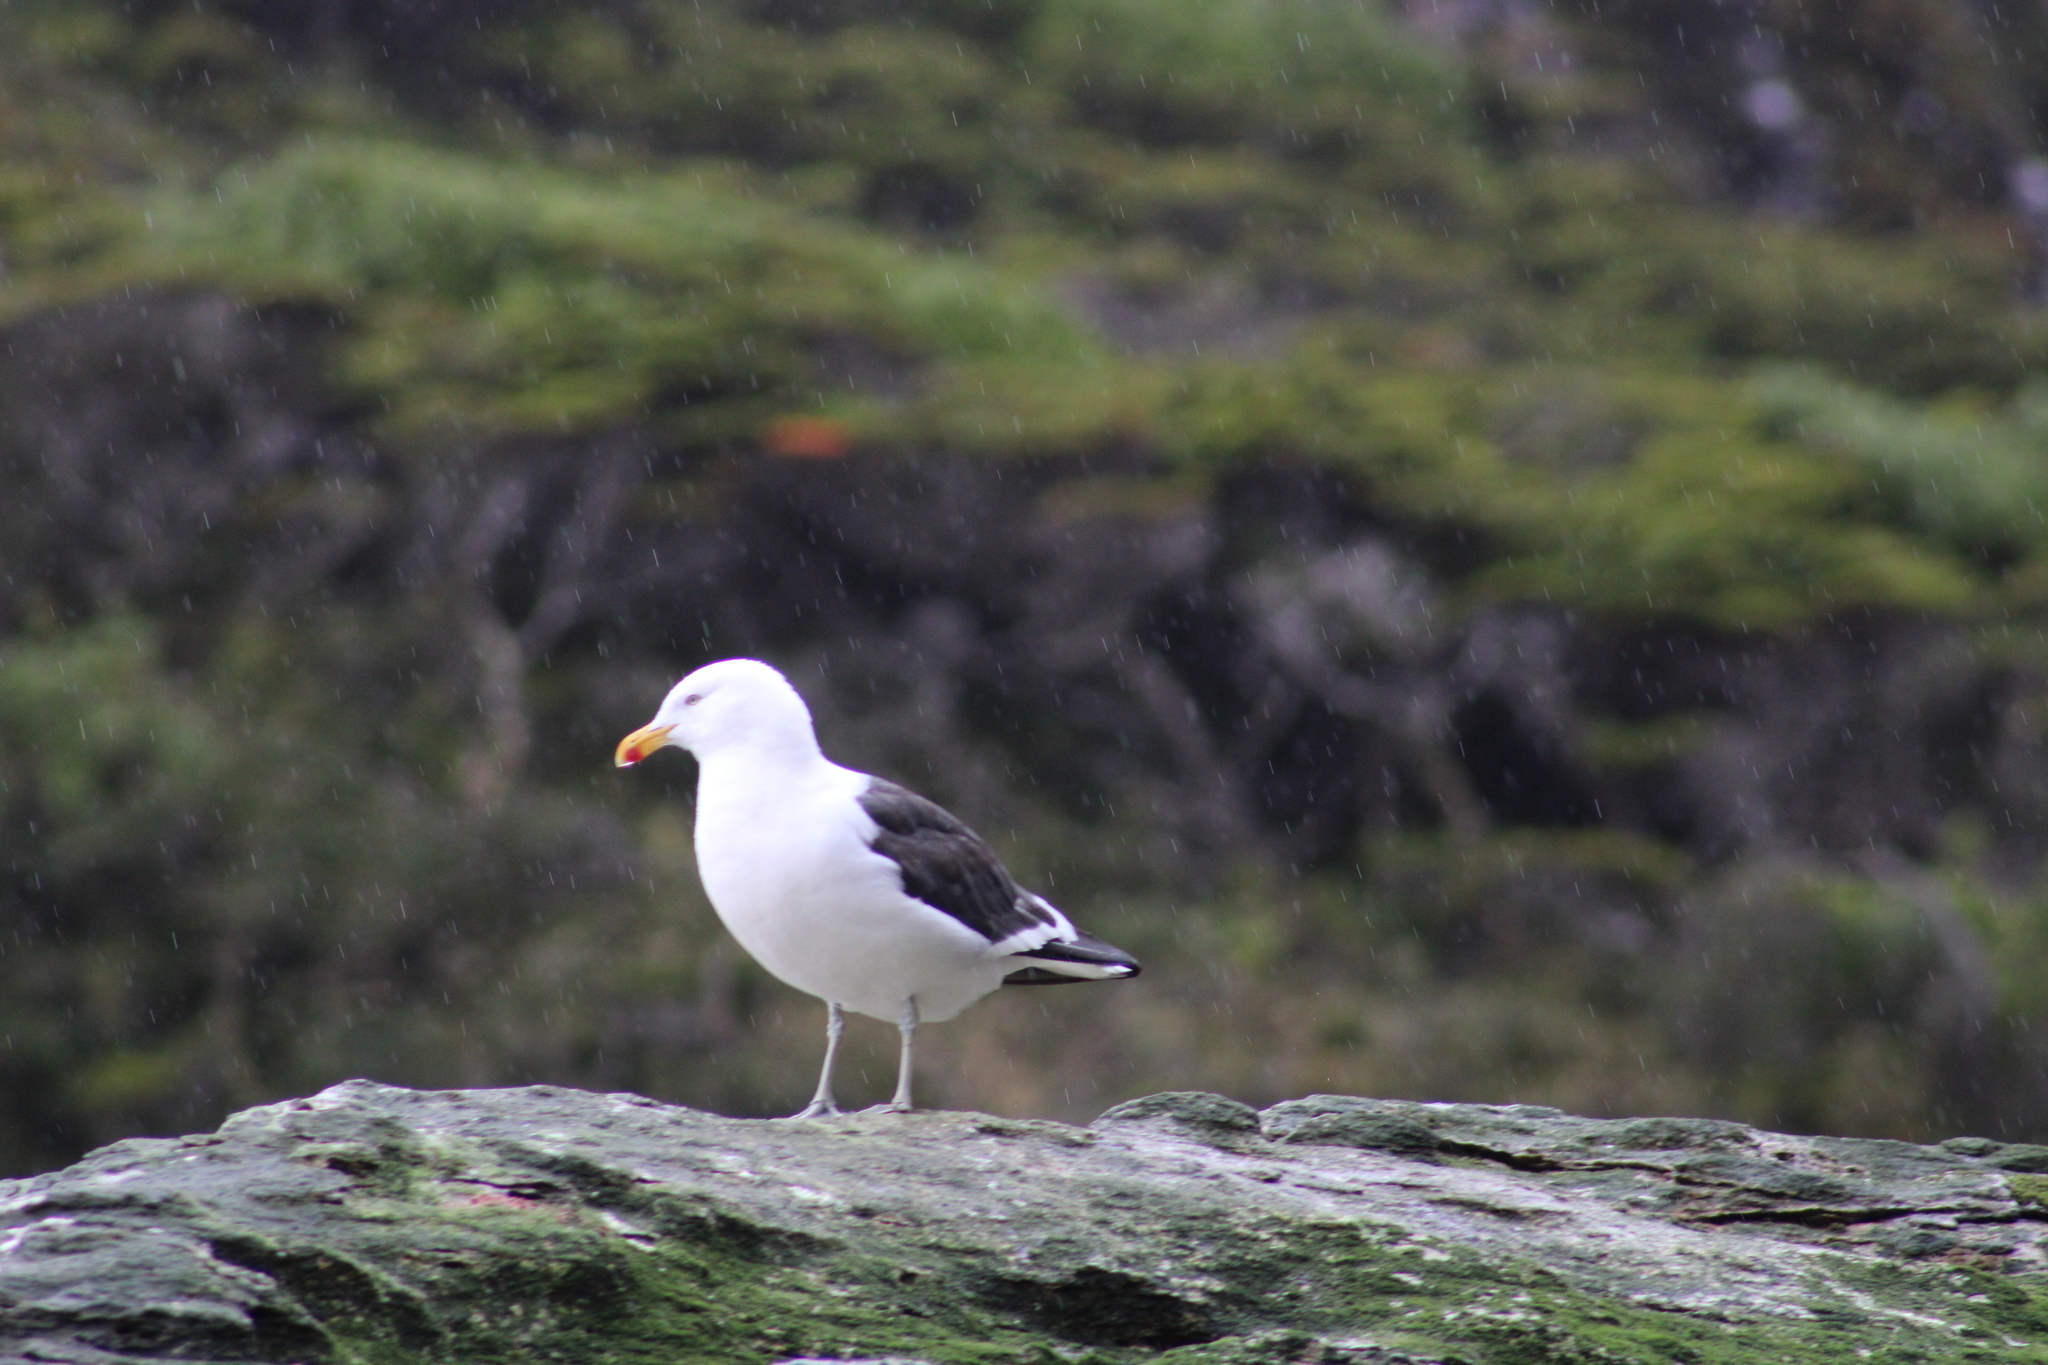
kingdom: Animalia
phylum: Chordata
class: Aves
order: Charadriiformes
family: Laridae
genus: Larus
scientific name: Larus dominicanus
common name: Kelp gull
